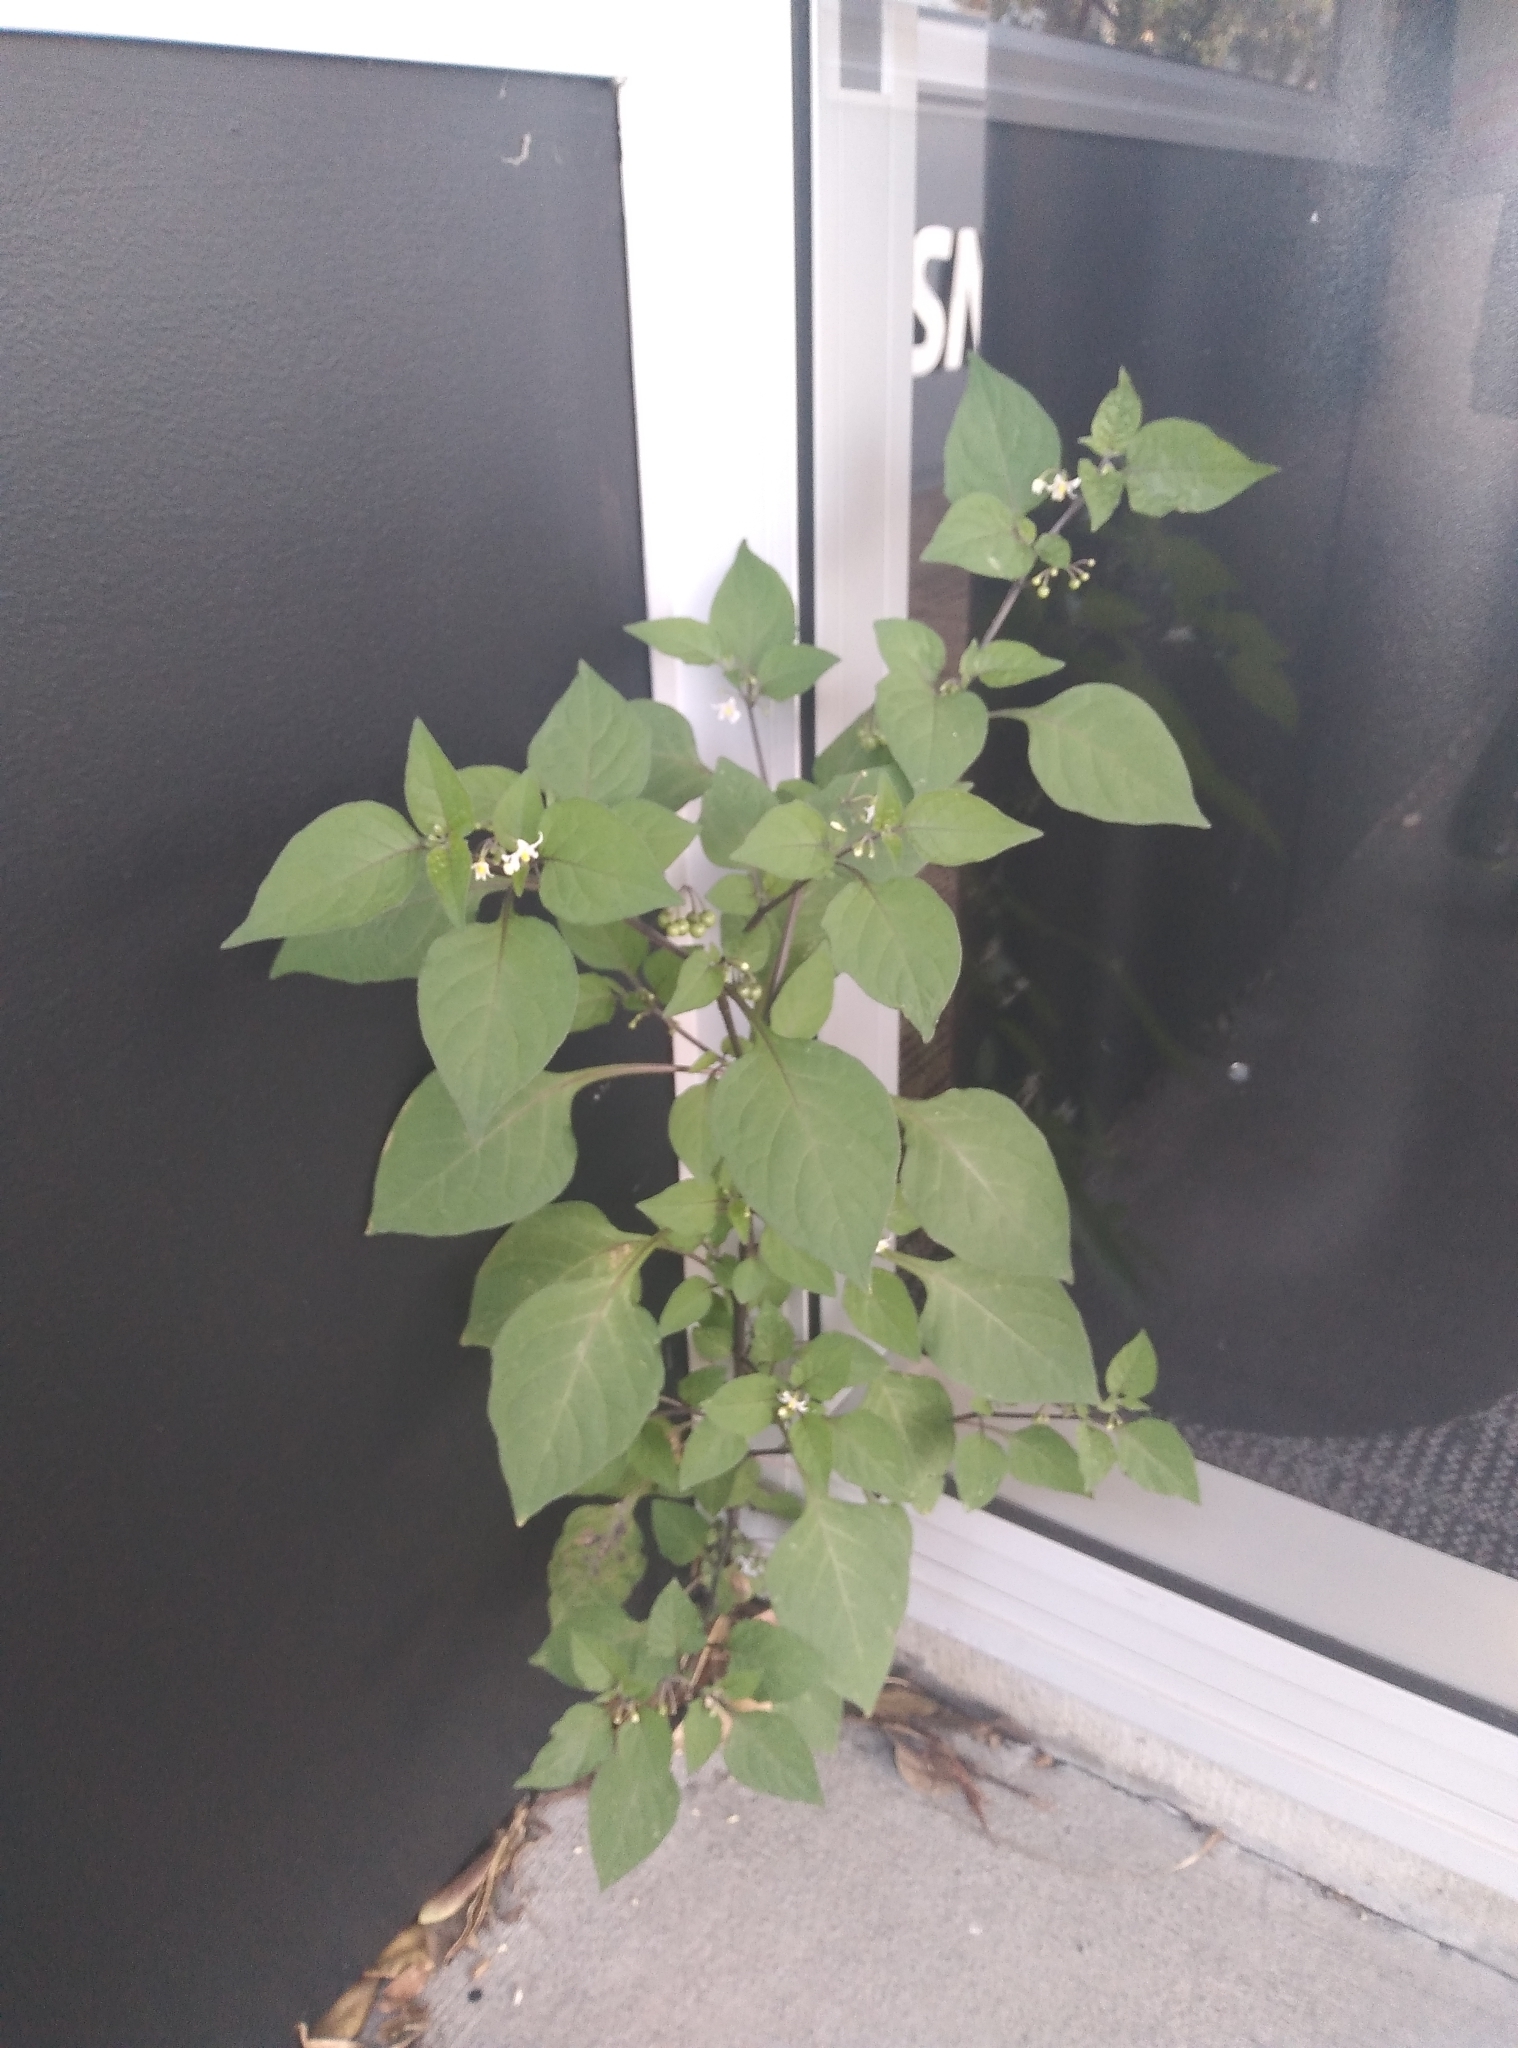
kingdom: Plantae
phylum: Tracheophyta
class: Magnoliopsida
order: Solanales
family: Solanaceae
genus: Solanum
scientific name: Solanum nigrum
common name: Black nightshade
